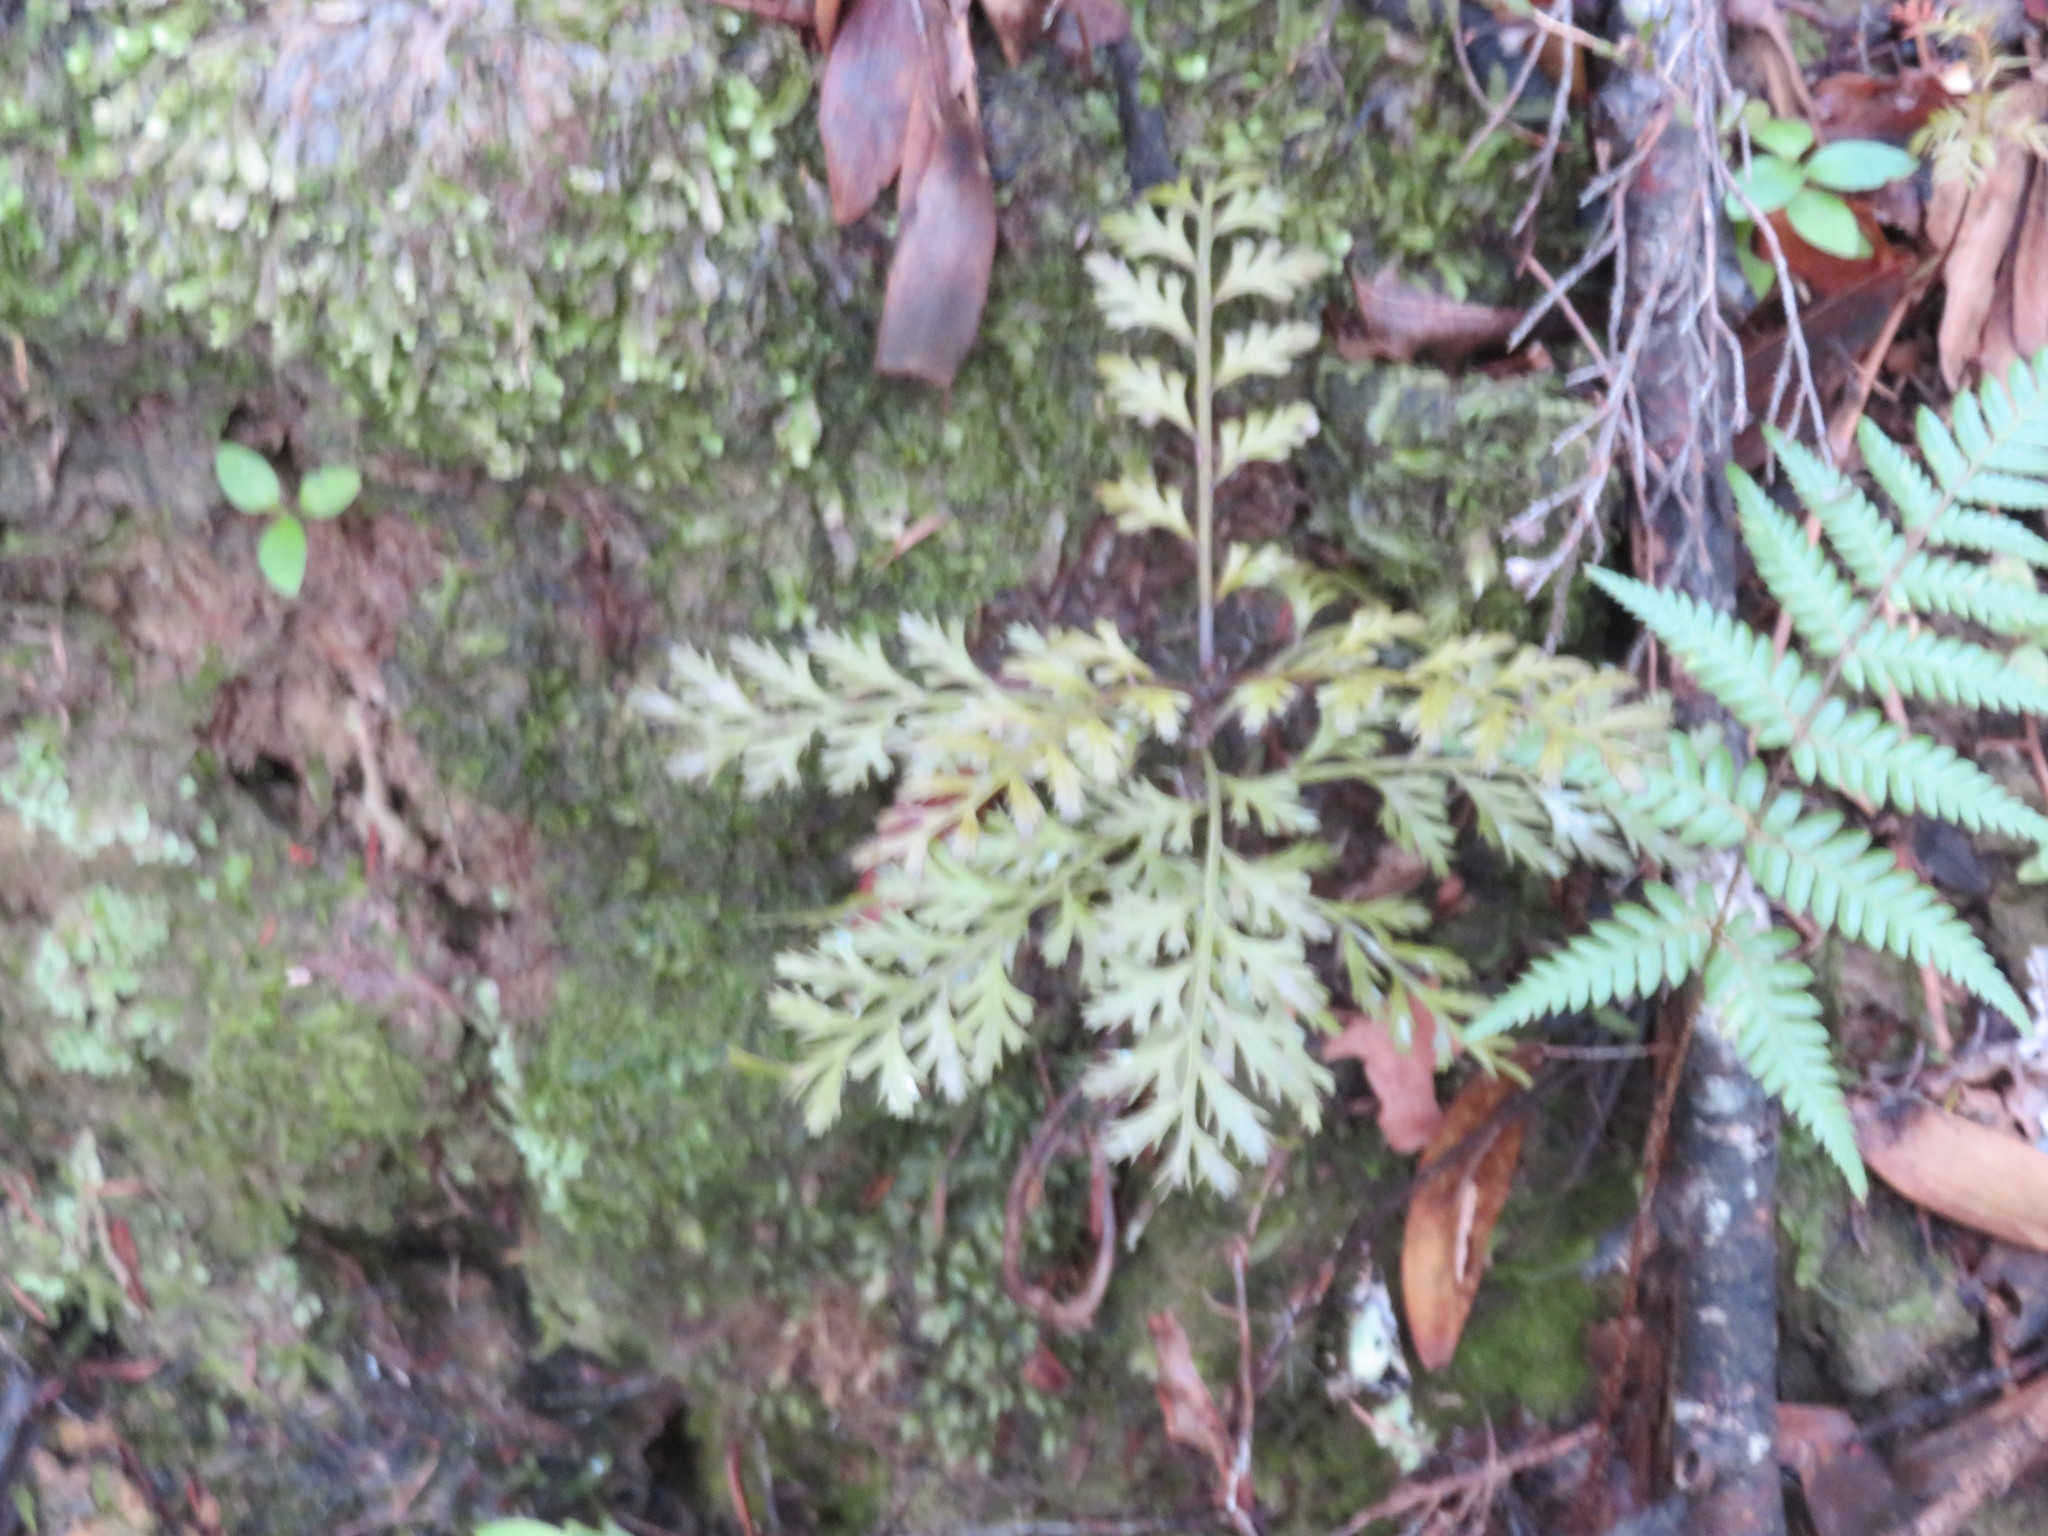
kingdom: Plantae
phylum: Tracheophyta
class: Pinopsida
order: Pinales
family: Phyllocladaceae
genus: Phyllocladus
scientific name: Phyllocladus trichomanoides
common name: Celery pine
